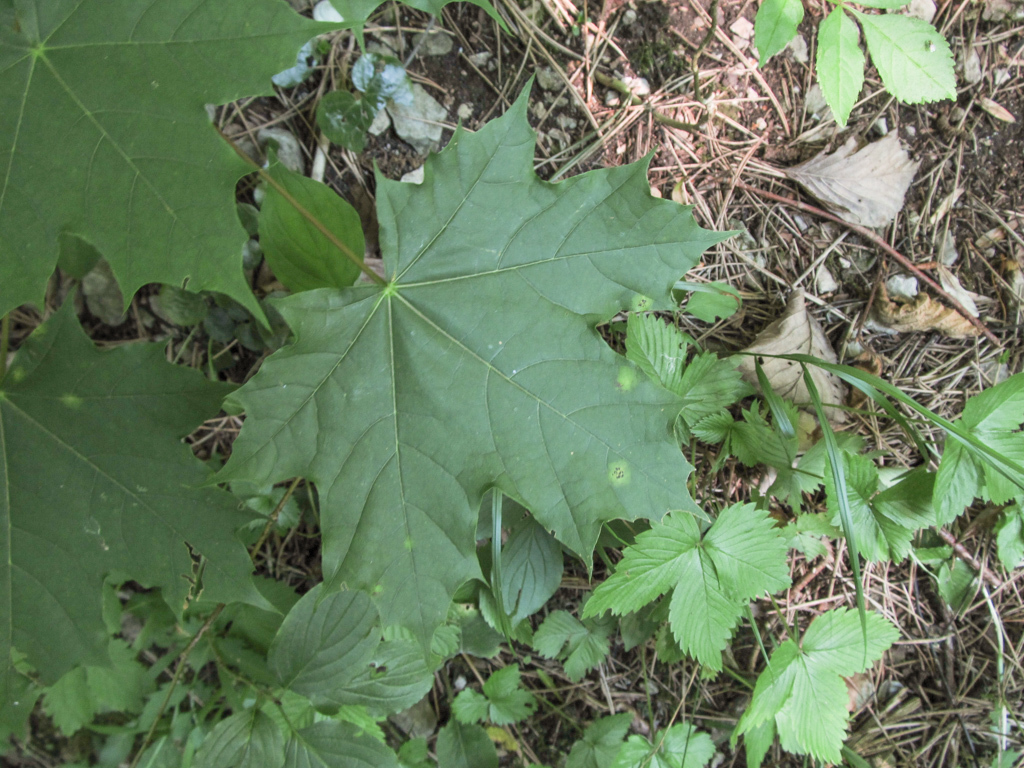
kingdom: Plantae
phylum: Tracheophyta
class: Magnoliopsida
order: Sapindales
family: Sapindaceae
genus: Acer
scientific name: Acer platanoides
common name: Norway maple
